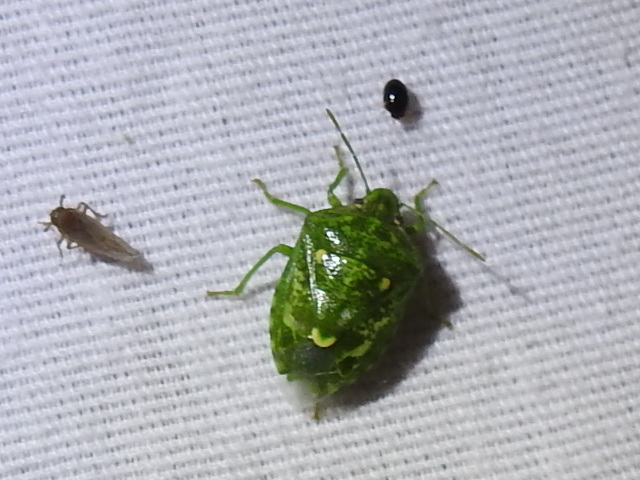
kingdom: Animalia
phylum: Arthropoda
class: Insecta
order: Hemiptera
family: Pentatomidae
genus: Banasa
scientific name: Banasa euchlora
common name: Cedar berry bug
